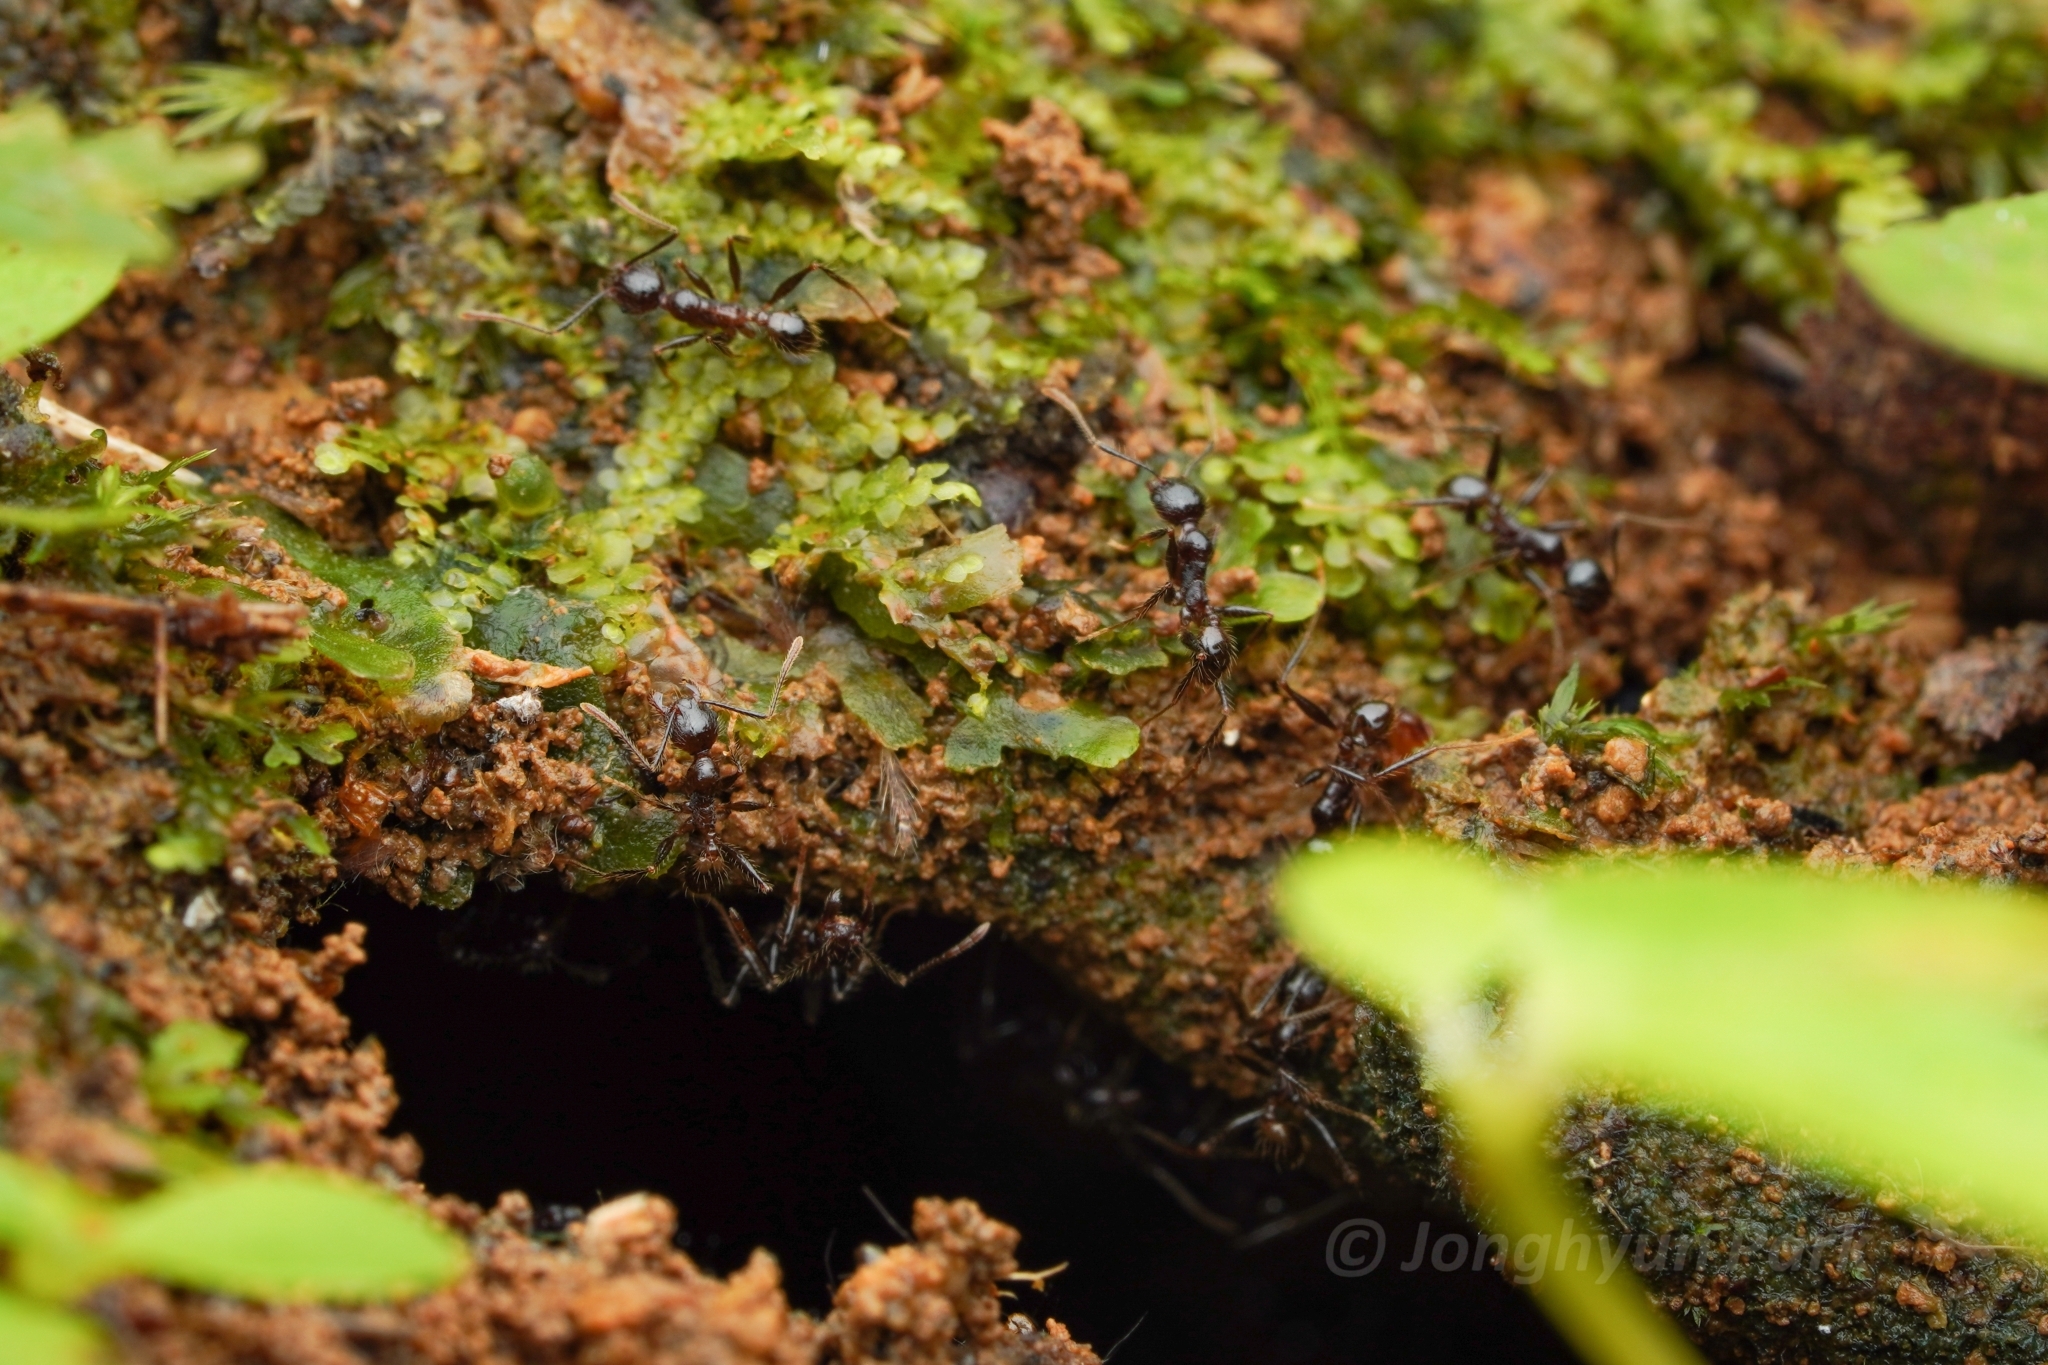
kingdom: Animalia
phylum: Arthropoda
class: Insecta
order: Hymenoptera
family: Formicidae
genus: Pheidole
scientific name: Pheidole plagiaria
